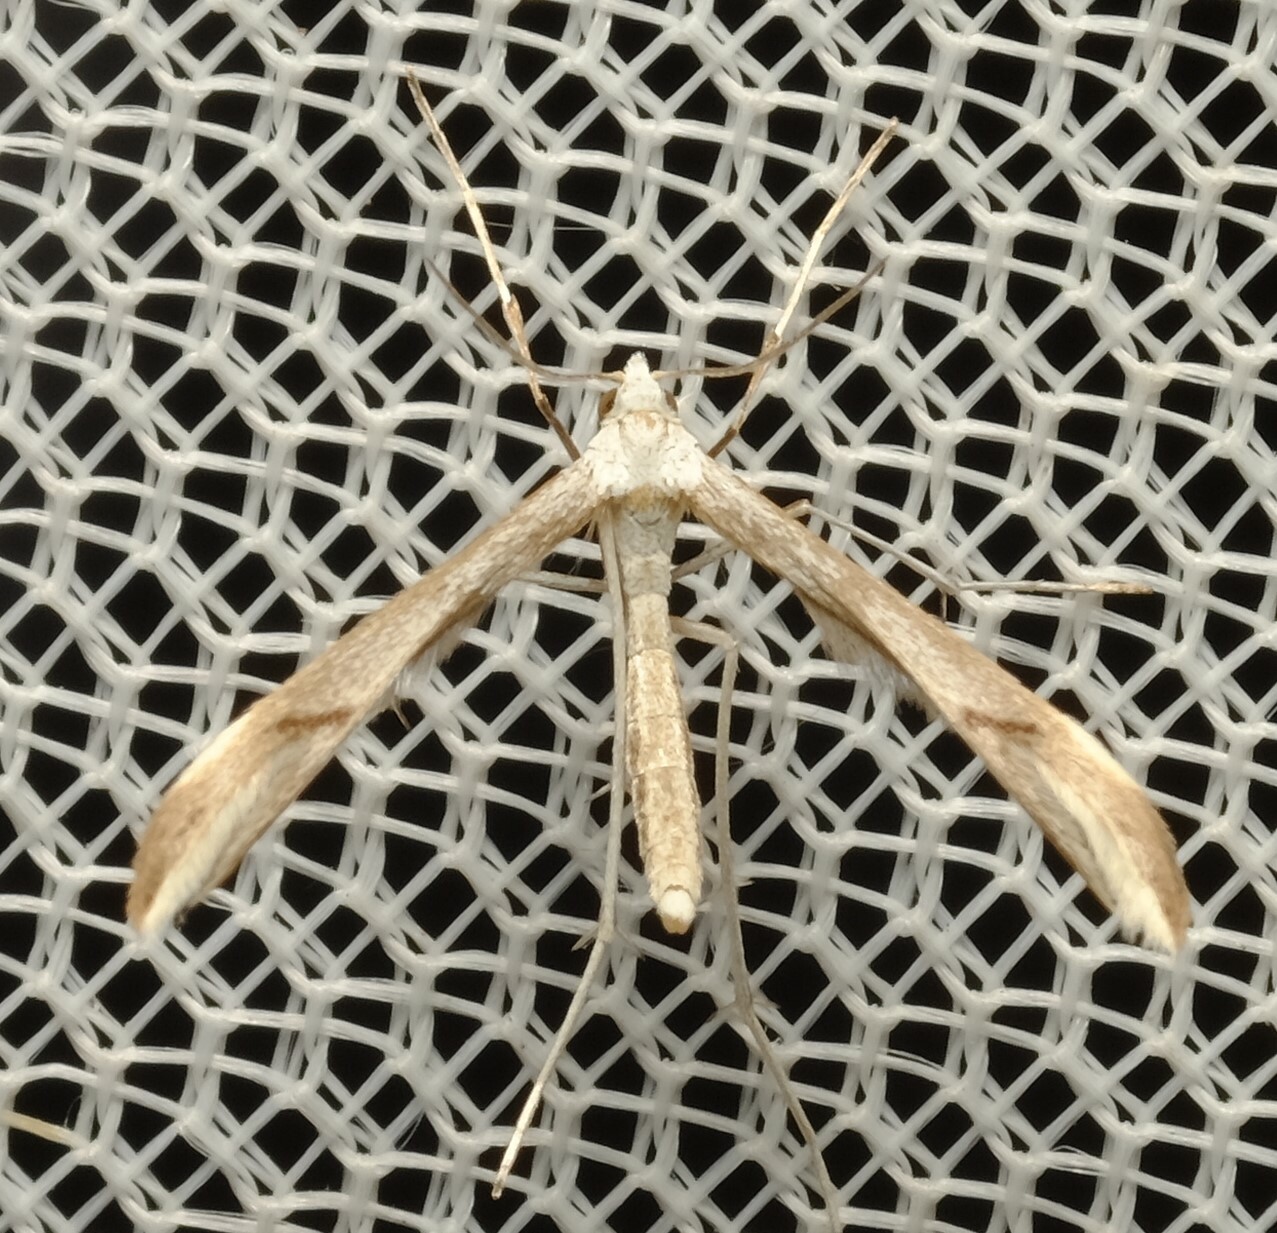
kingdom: Animalia
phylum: Arthropoda
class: Insecta
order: Lepidoptera
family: Pterophoridae
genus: Platyptilia
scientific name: Platyptilia celidotus
